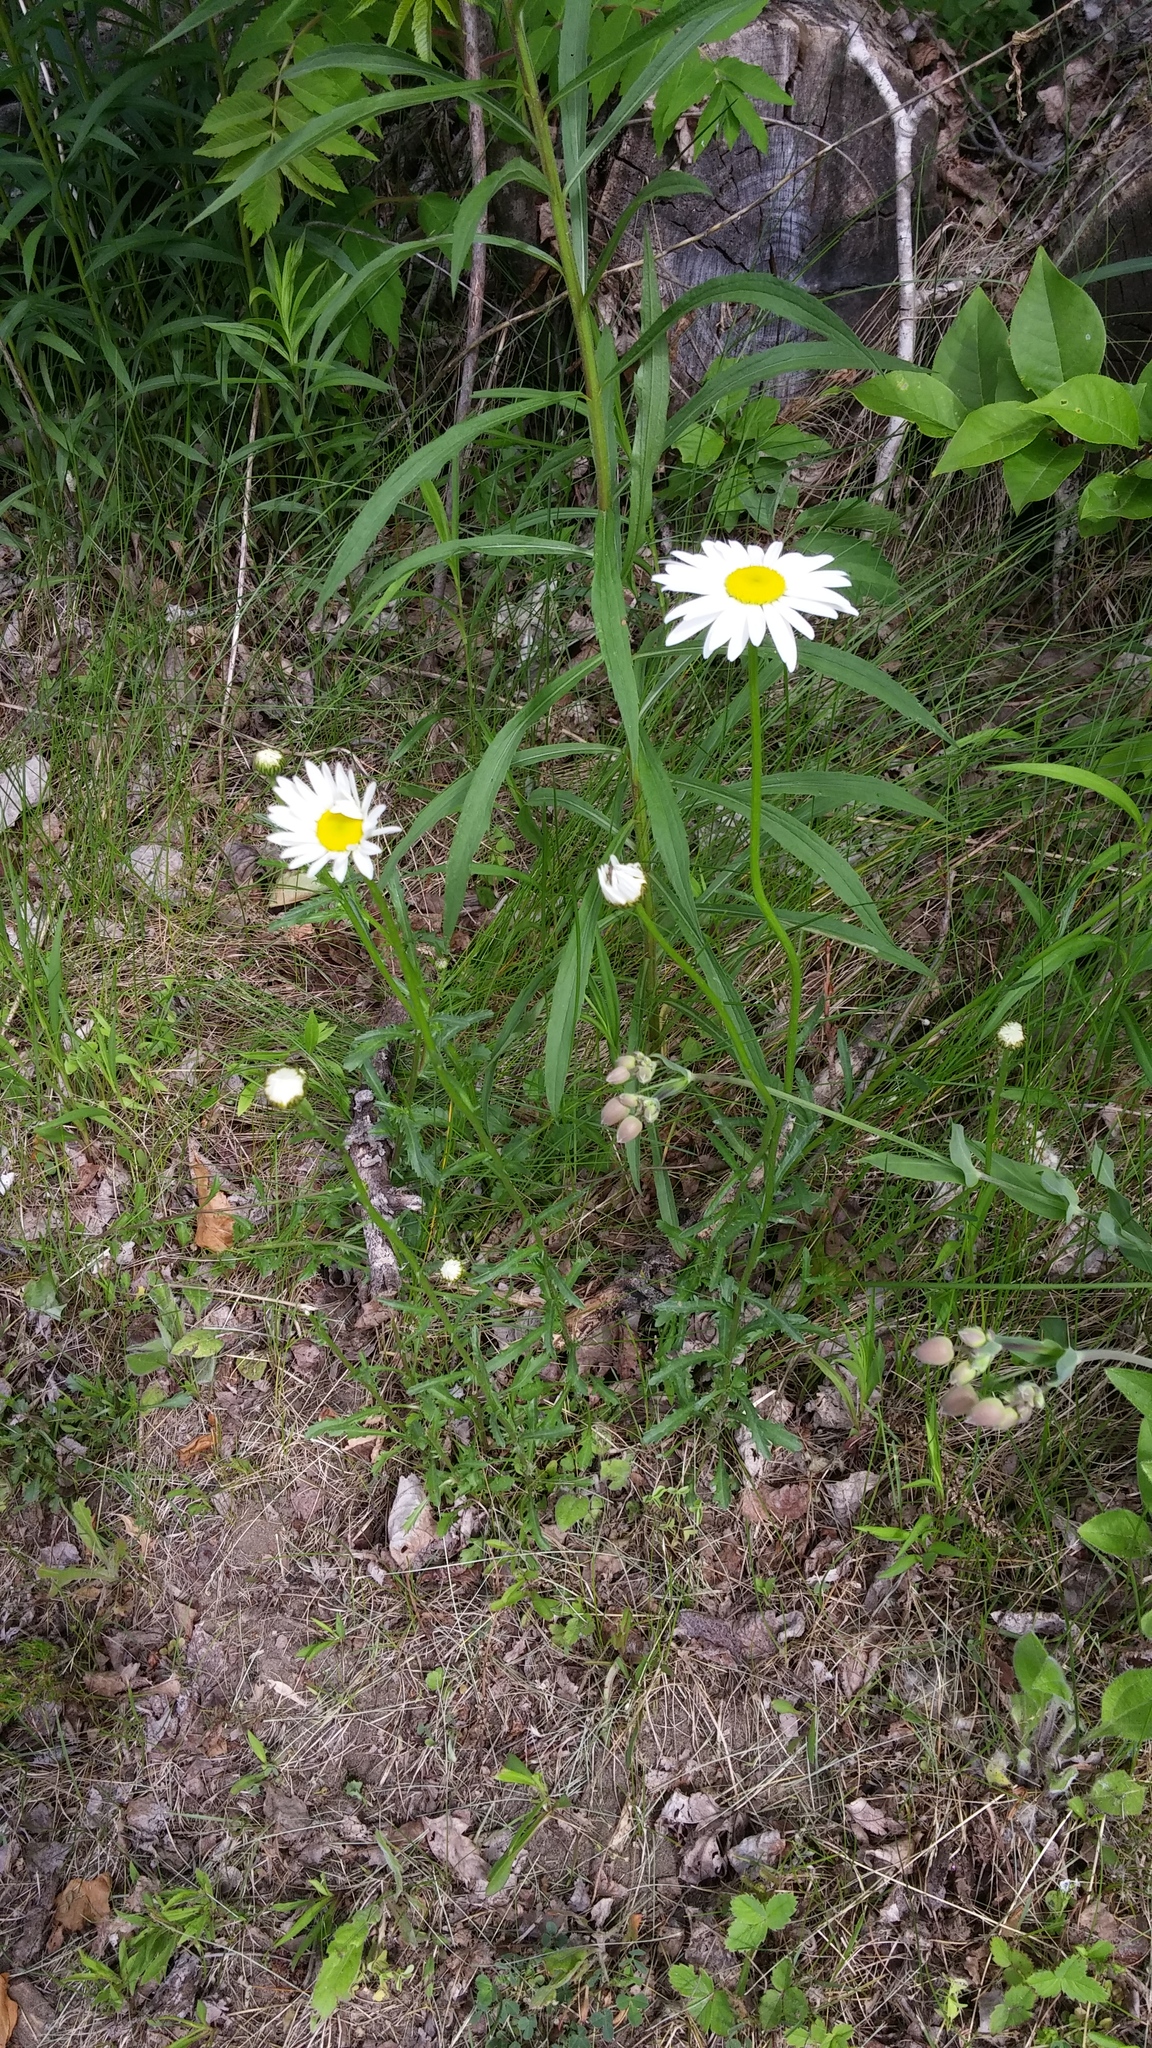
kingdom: Plantae
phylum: Tracheophyta
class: Magnoliopsida
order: Asterales
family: Asteraceae
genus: Leucanthemum
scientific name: Leucanthemum vulgare
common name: Oxeye daisy
